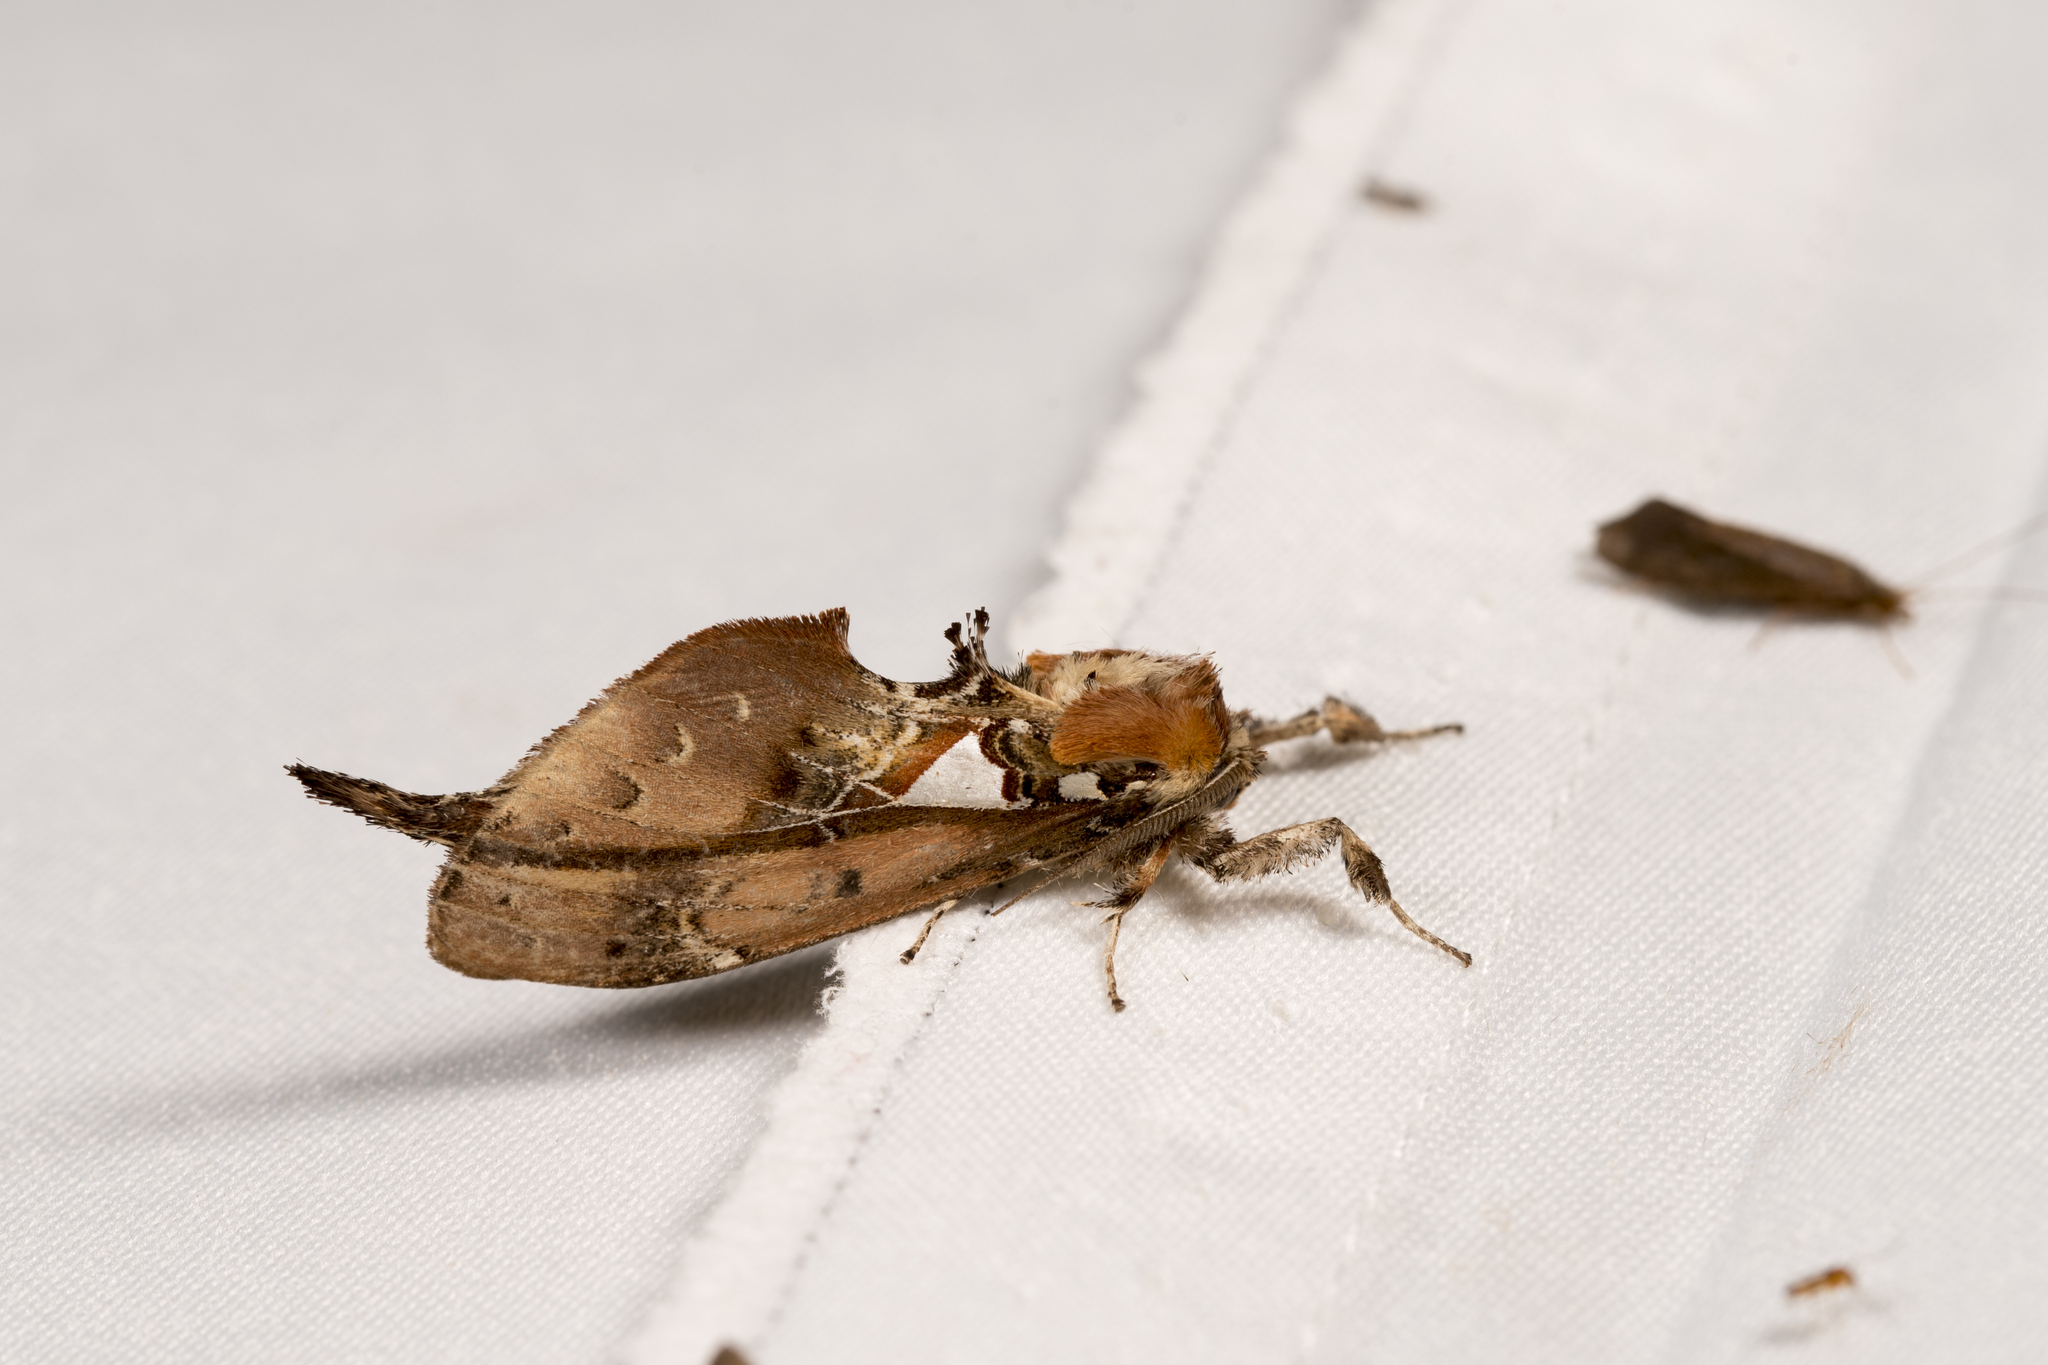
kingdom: Animalia
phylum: Arthropoda
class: Insecta
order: Lepidoptera
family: Notodontidae
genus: Ginshachia
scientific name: Ginshachia elongata
